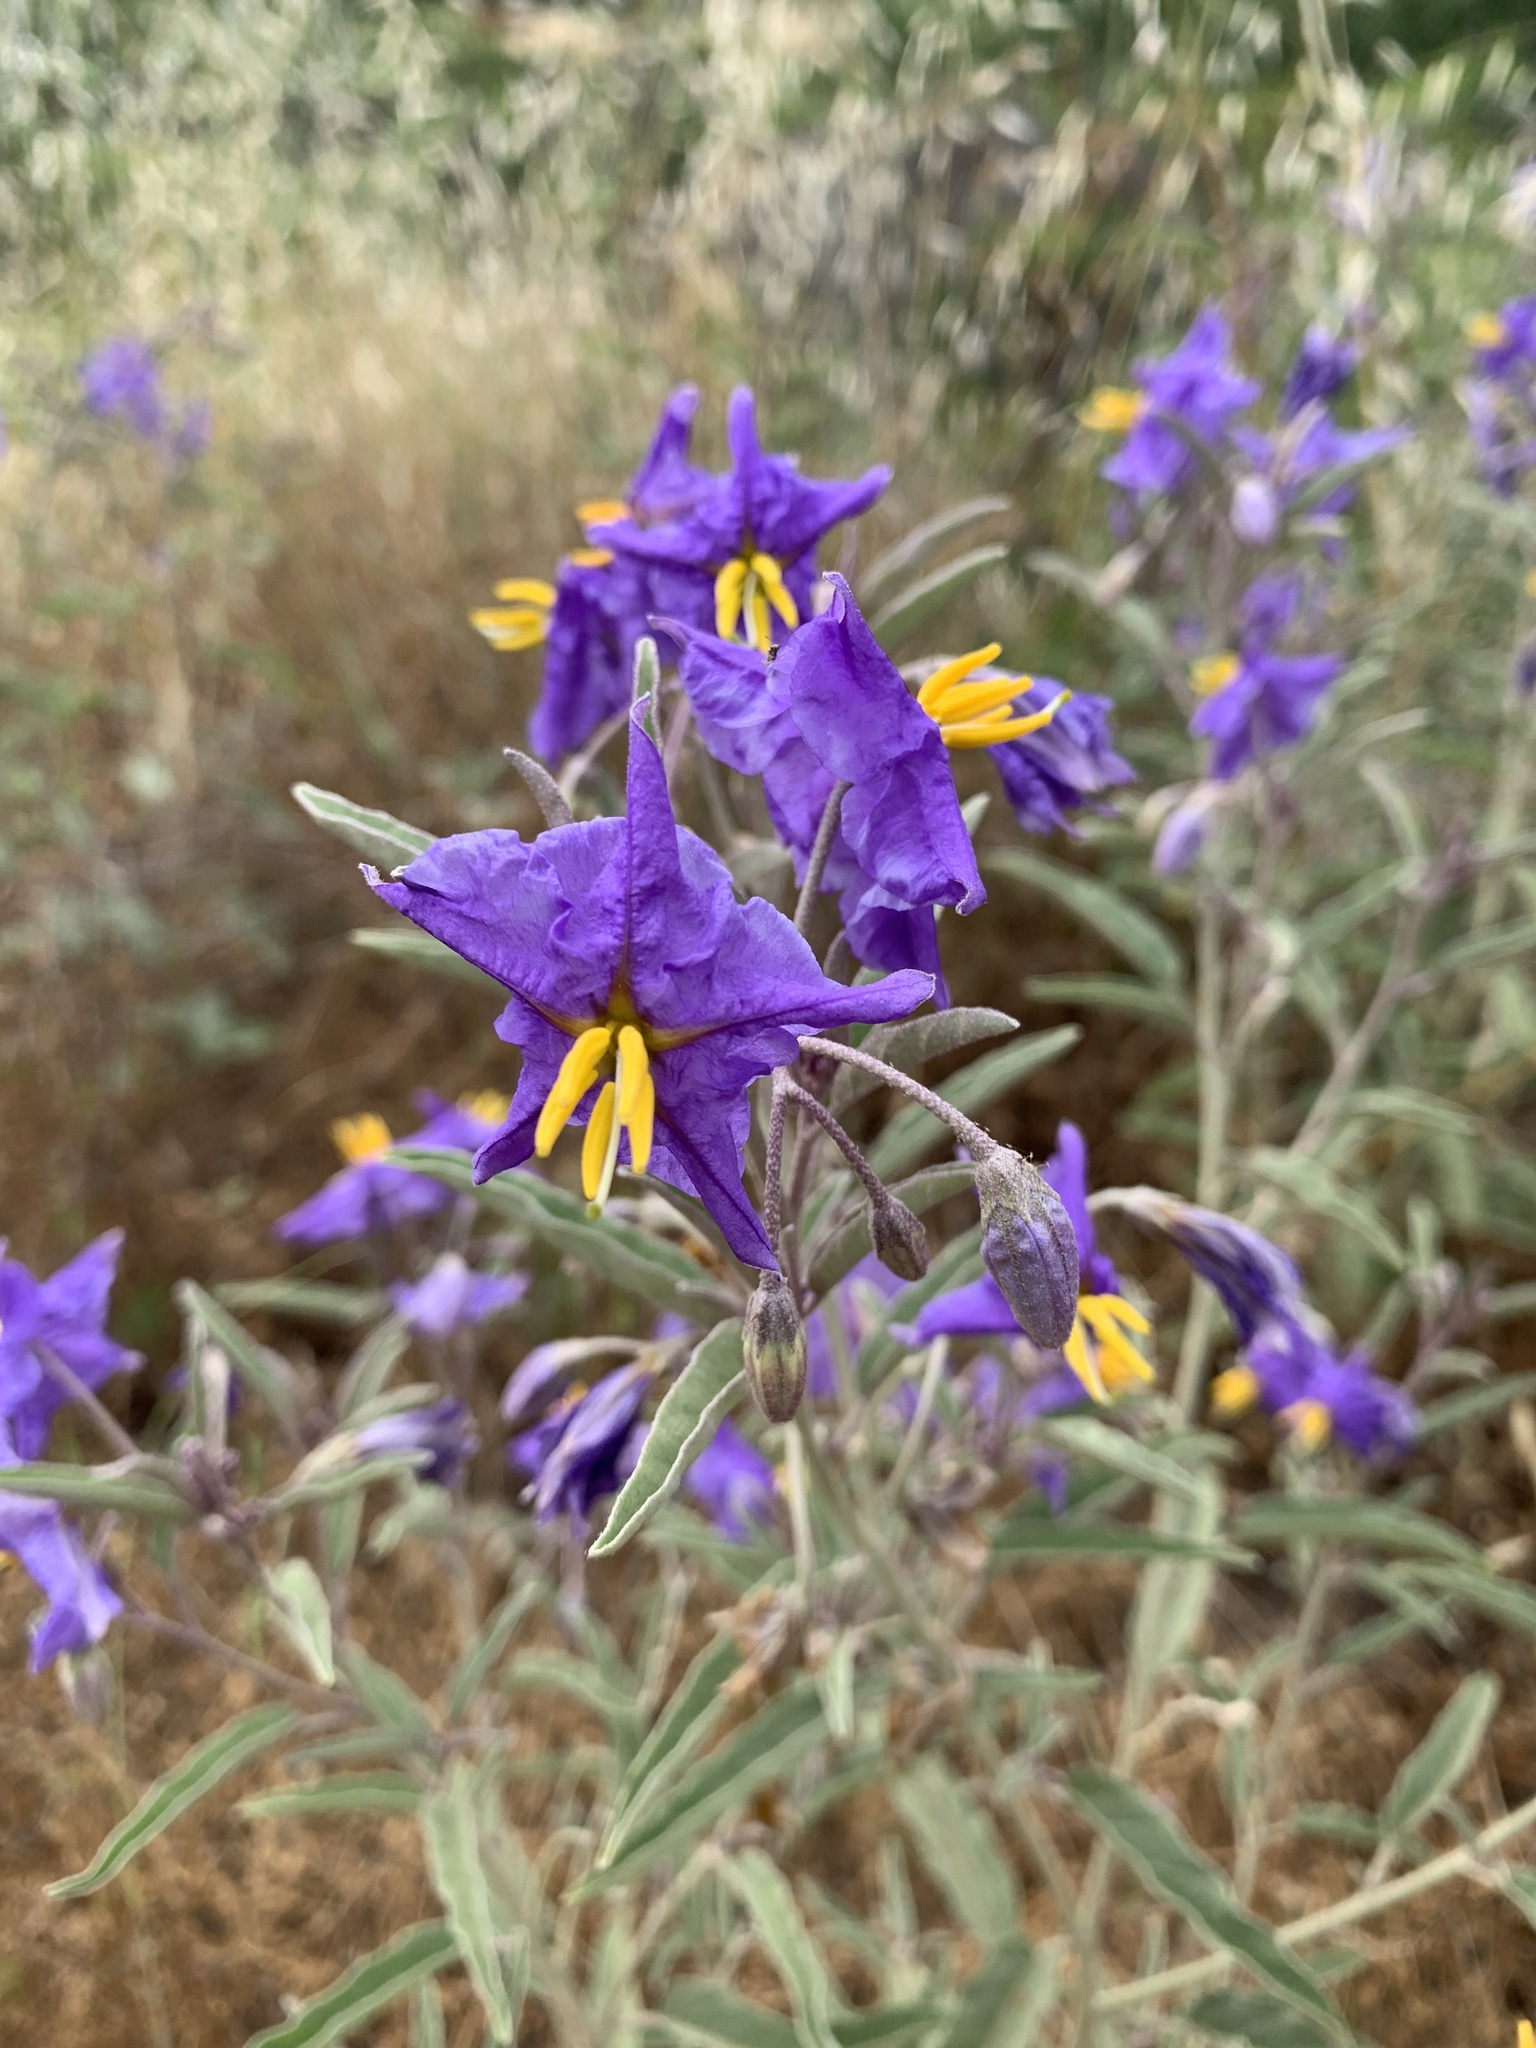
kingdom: Plantae
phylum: Tracheophyta
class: Magnoliopsida
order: Solanales
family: Solanaceae
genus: Solanum
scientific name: Solanum elaeagnifolium
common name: Silverleaf nightshade
